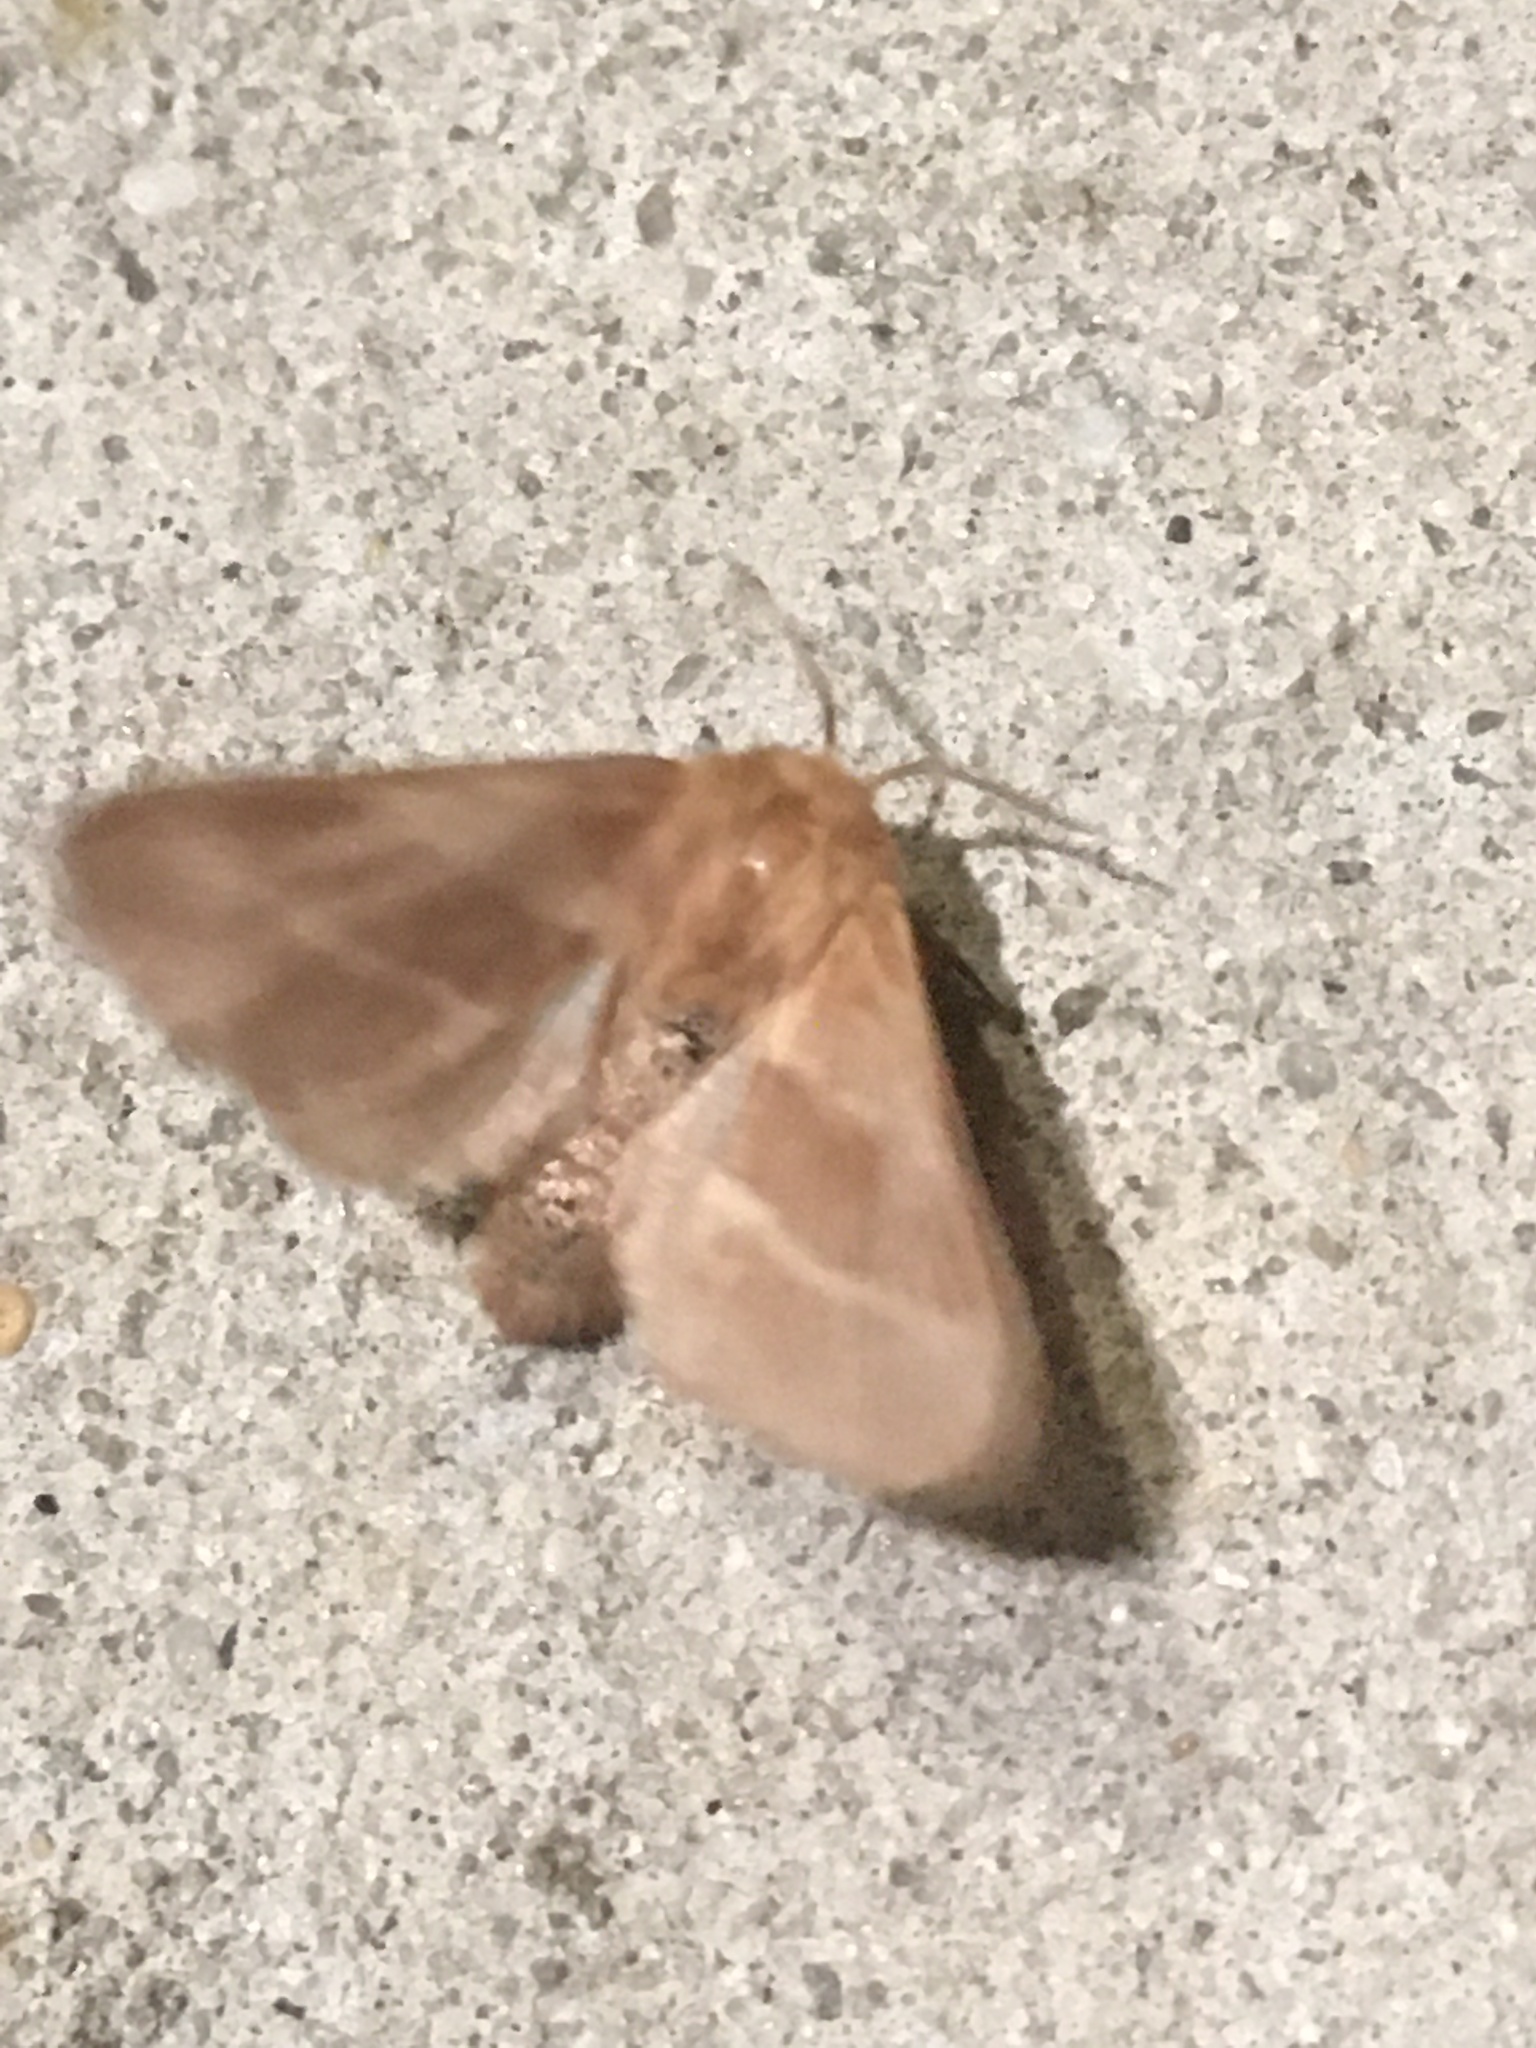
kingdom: Animalia
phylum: Arthropoda
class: Insecta
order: Lepidoptera
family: Lasiocampidae
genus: Malacosoma
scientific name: Malacosoma americana
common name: Eastern tent caterpillar moth
